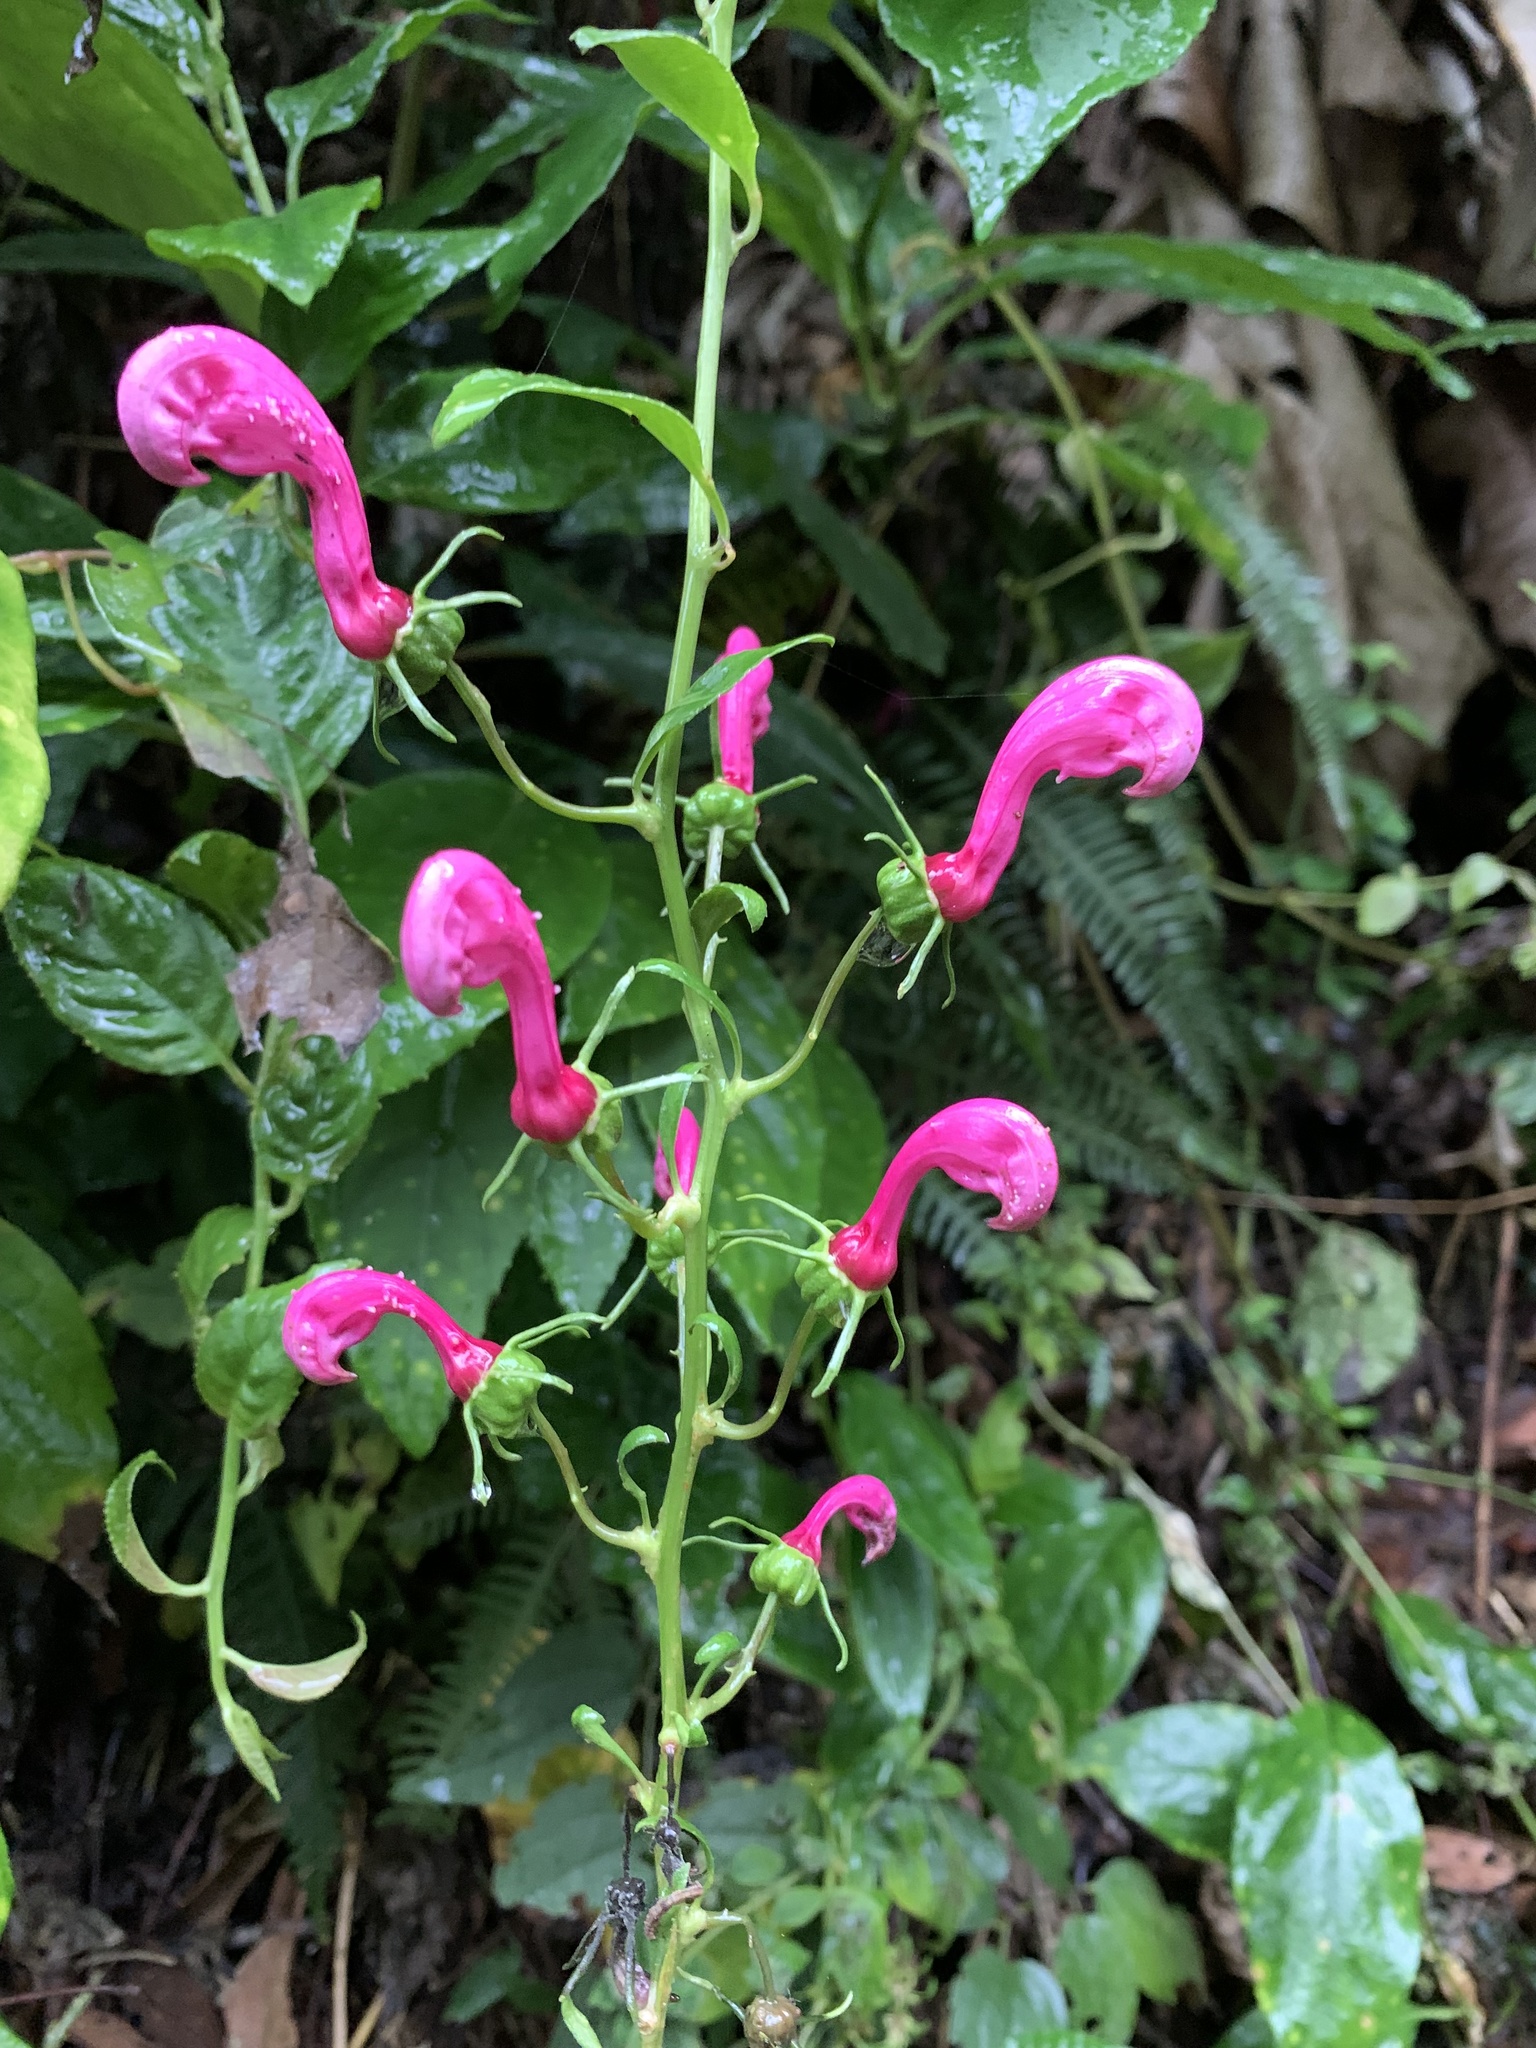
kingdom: Plantae
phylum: Tracheophyta
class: Magnoliopsida
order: Asterales
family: Campanulaceae
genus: Centropogon
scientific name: Centropogon urubambae
